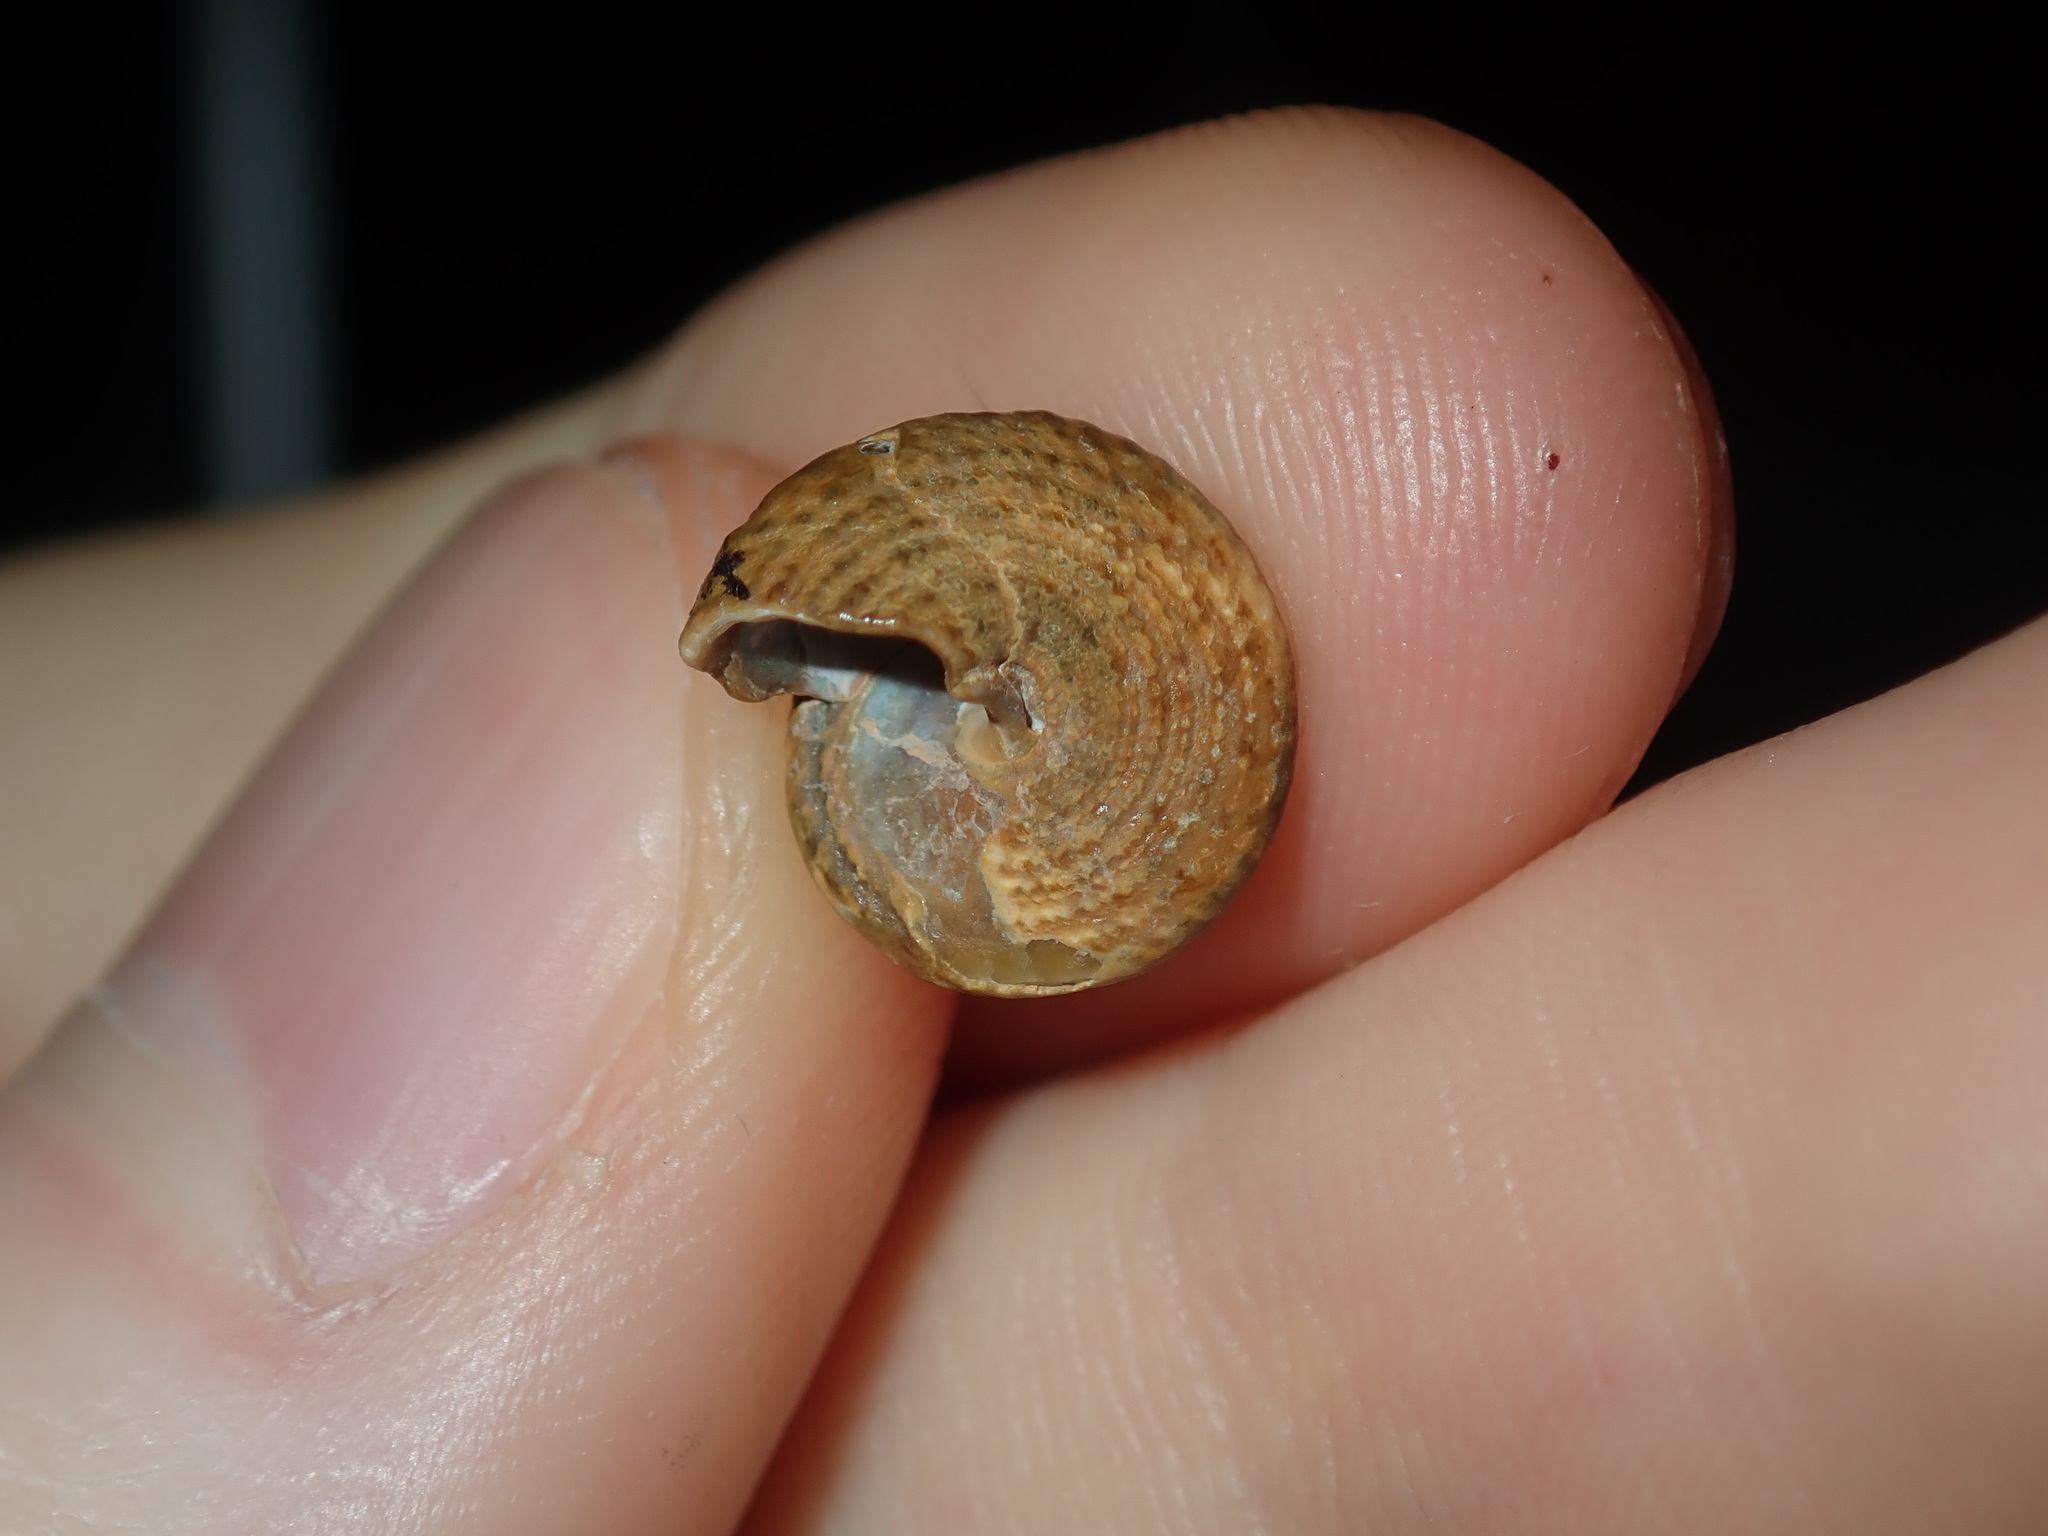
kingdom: Animalia
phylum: Mollusca
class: Gastropoda
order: Trochida
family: Trochidae
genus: Calthalotia
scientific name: Calthalotia fragum
